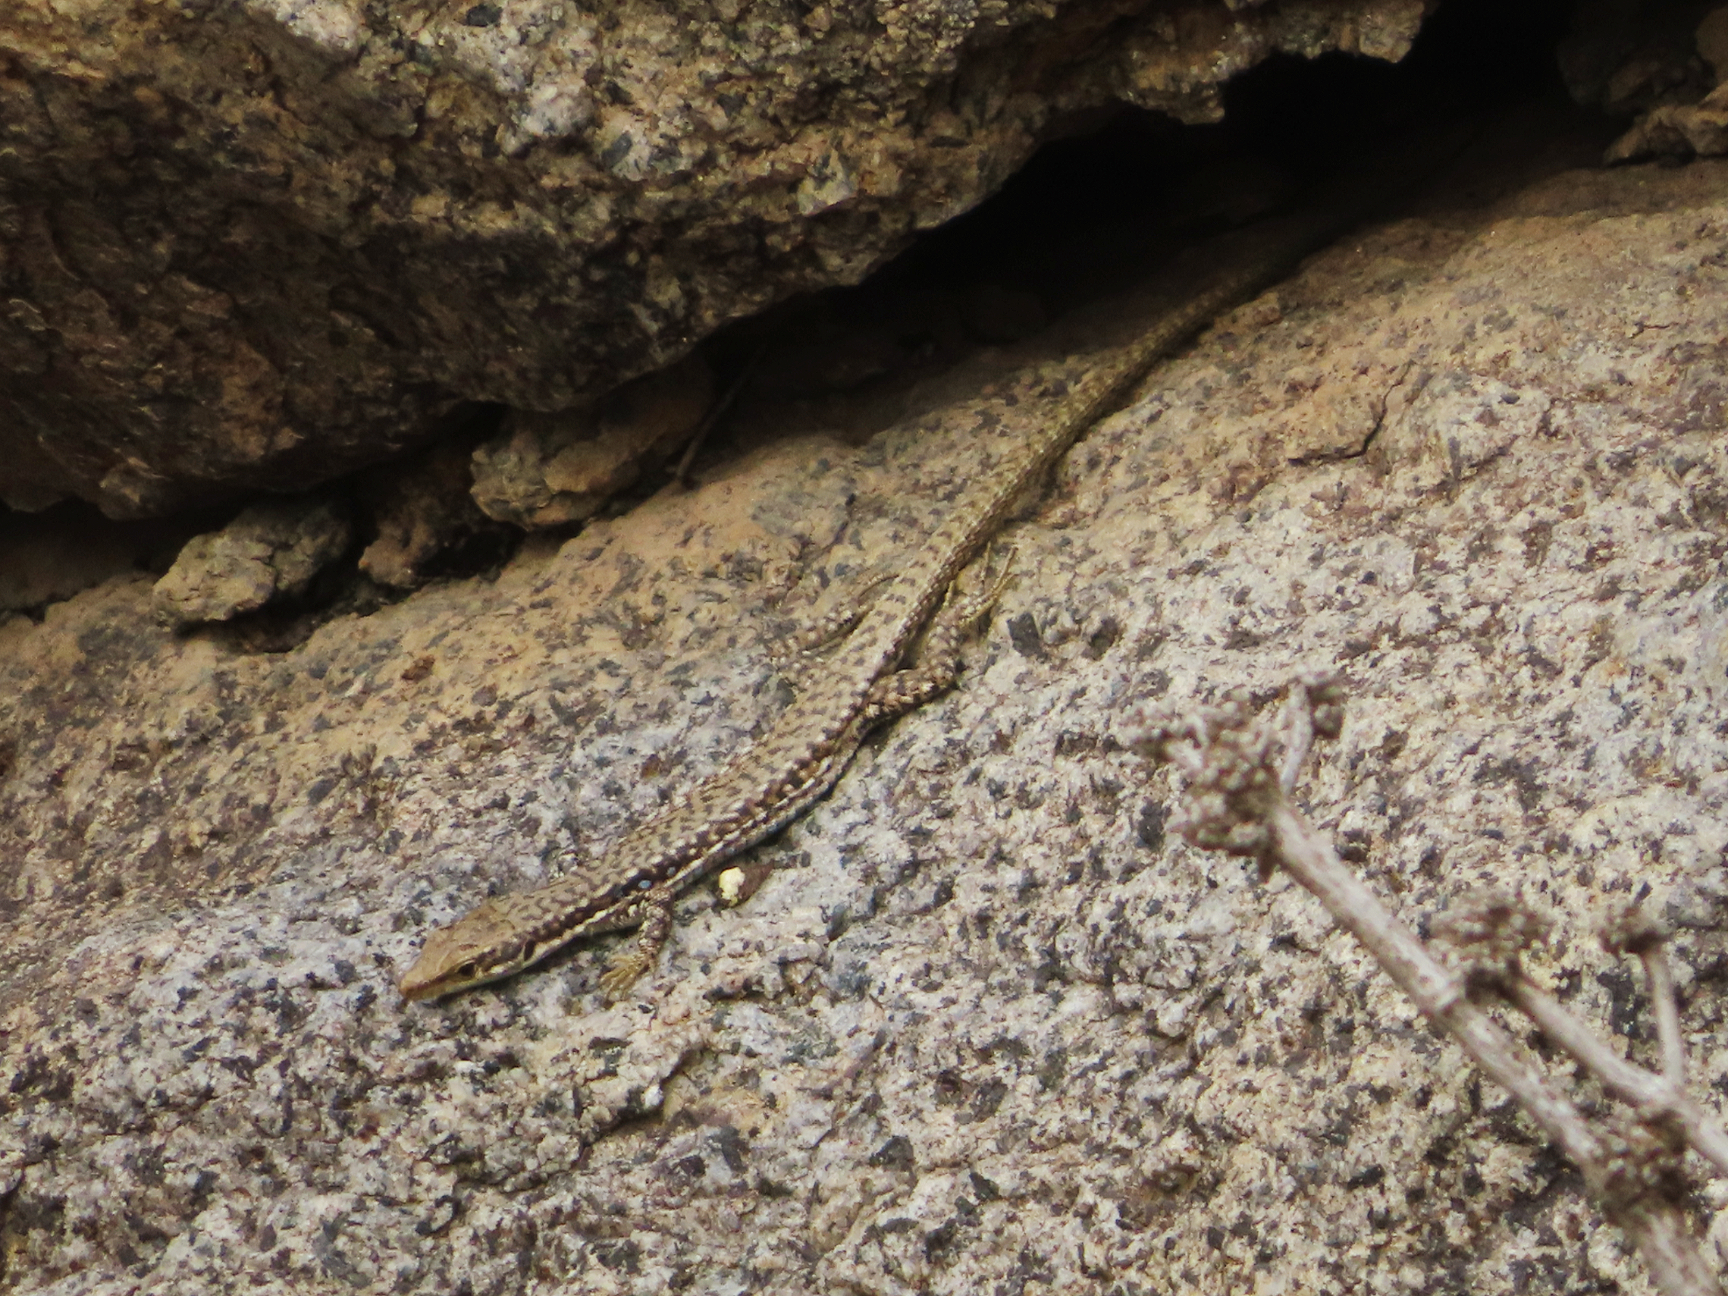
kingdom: Animalia
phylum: Chordata
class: Squamata
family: Lacertidae
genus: Darevskia
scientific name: Darevskia raddei
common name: Radde's lizard
